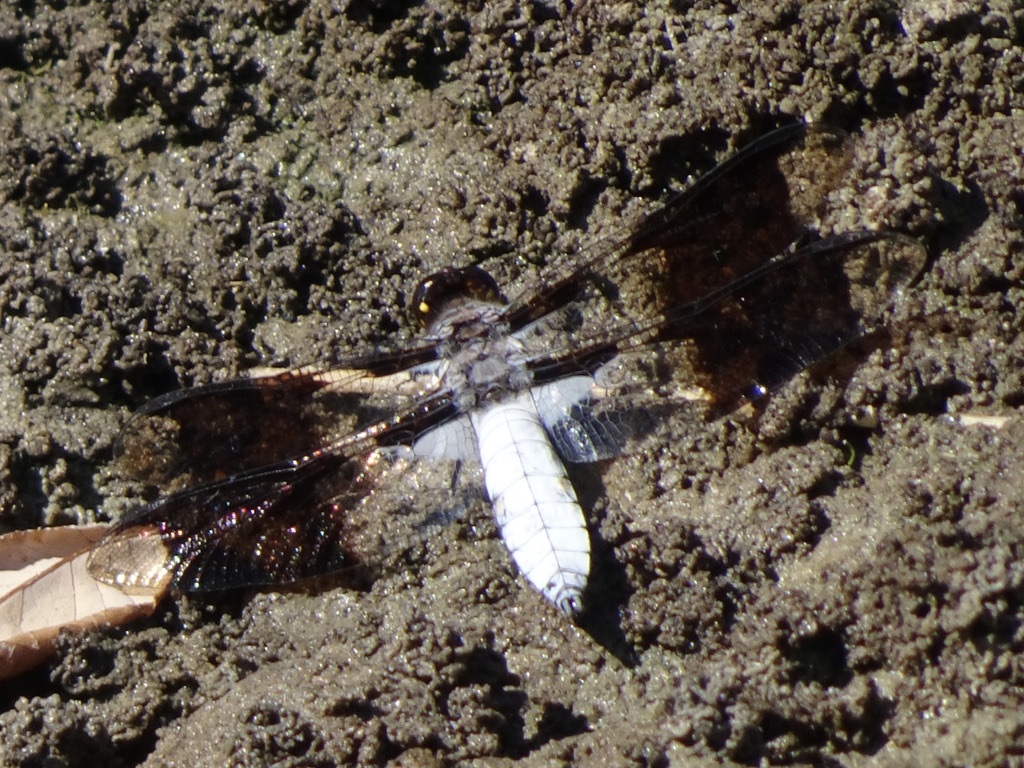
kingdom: Animalia
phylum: Arthropoda
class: Insecta
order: Odonata
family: Libellulidae
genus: Plathemis
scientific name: Plathemis lydia
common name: Common whitetail
